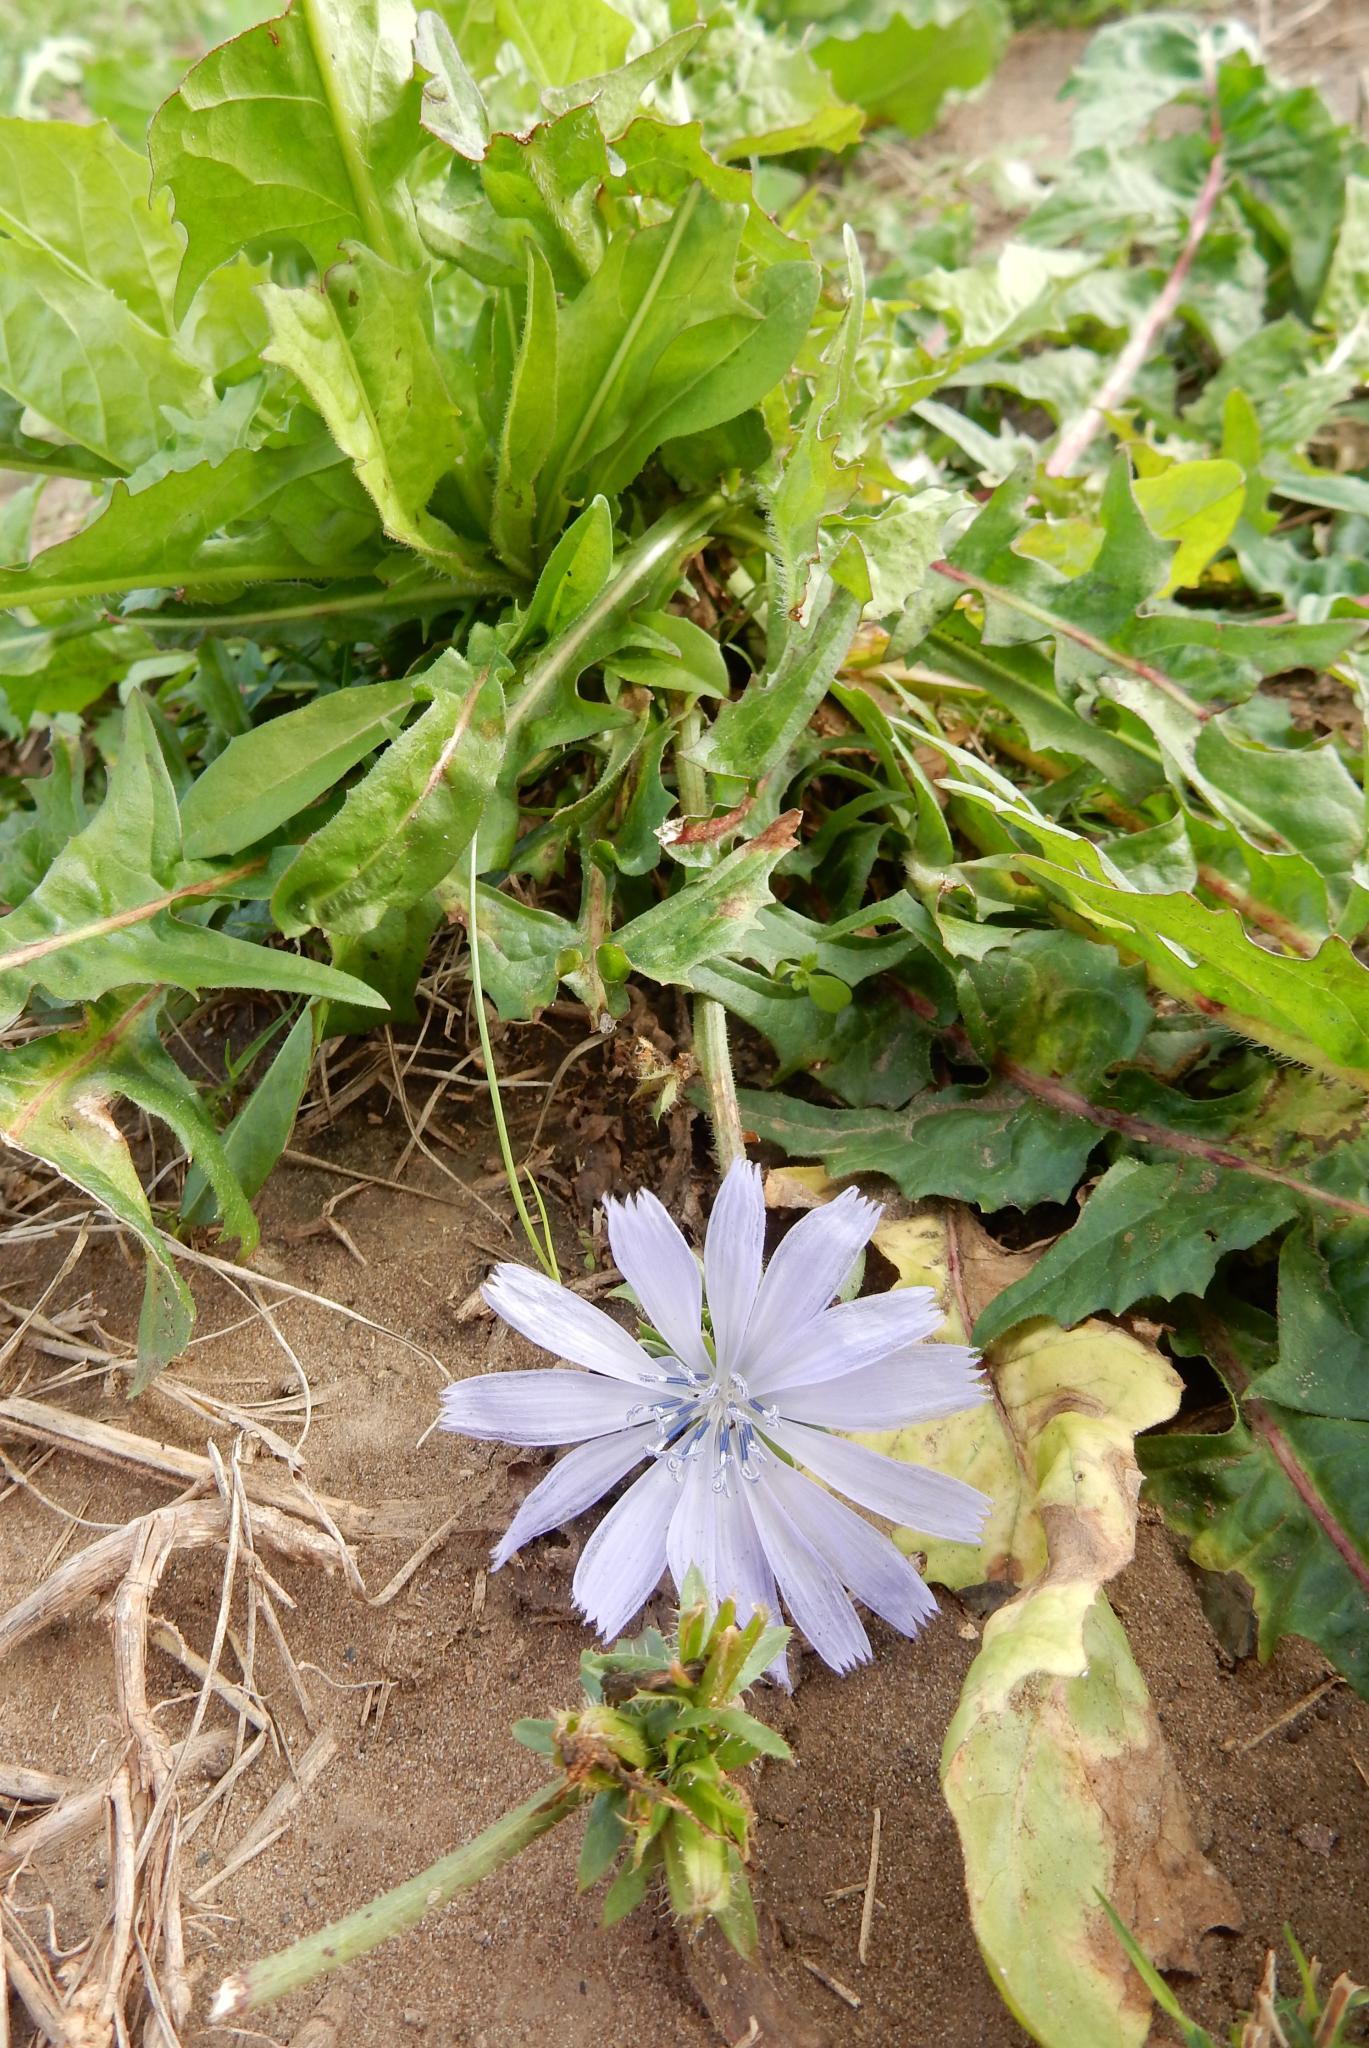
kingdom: Plantae
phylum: Tracheophyta
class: Magnoliopsida
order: Asterales
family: Asteraceae
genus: Cichorium
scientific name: Cichorium intybus
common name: Chicory
